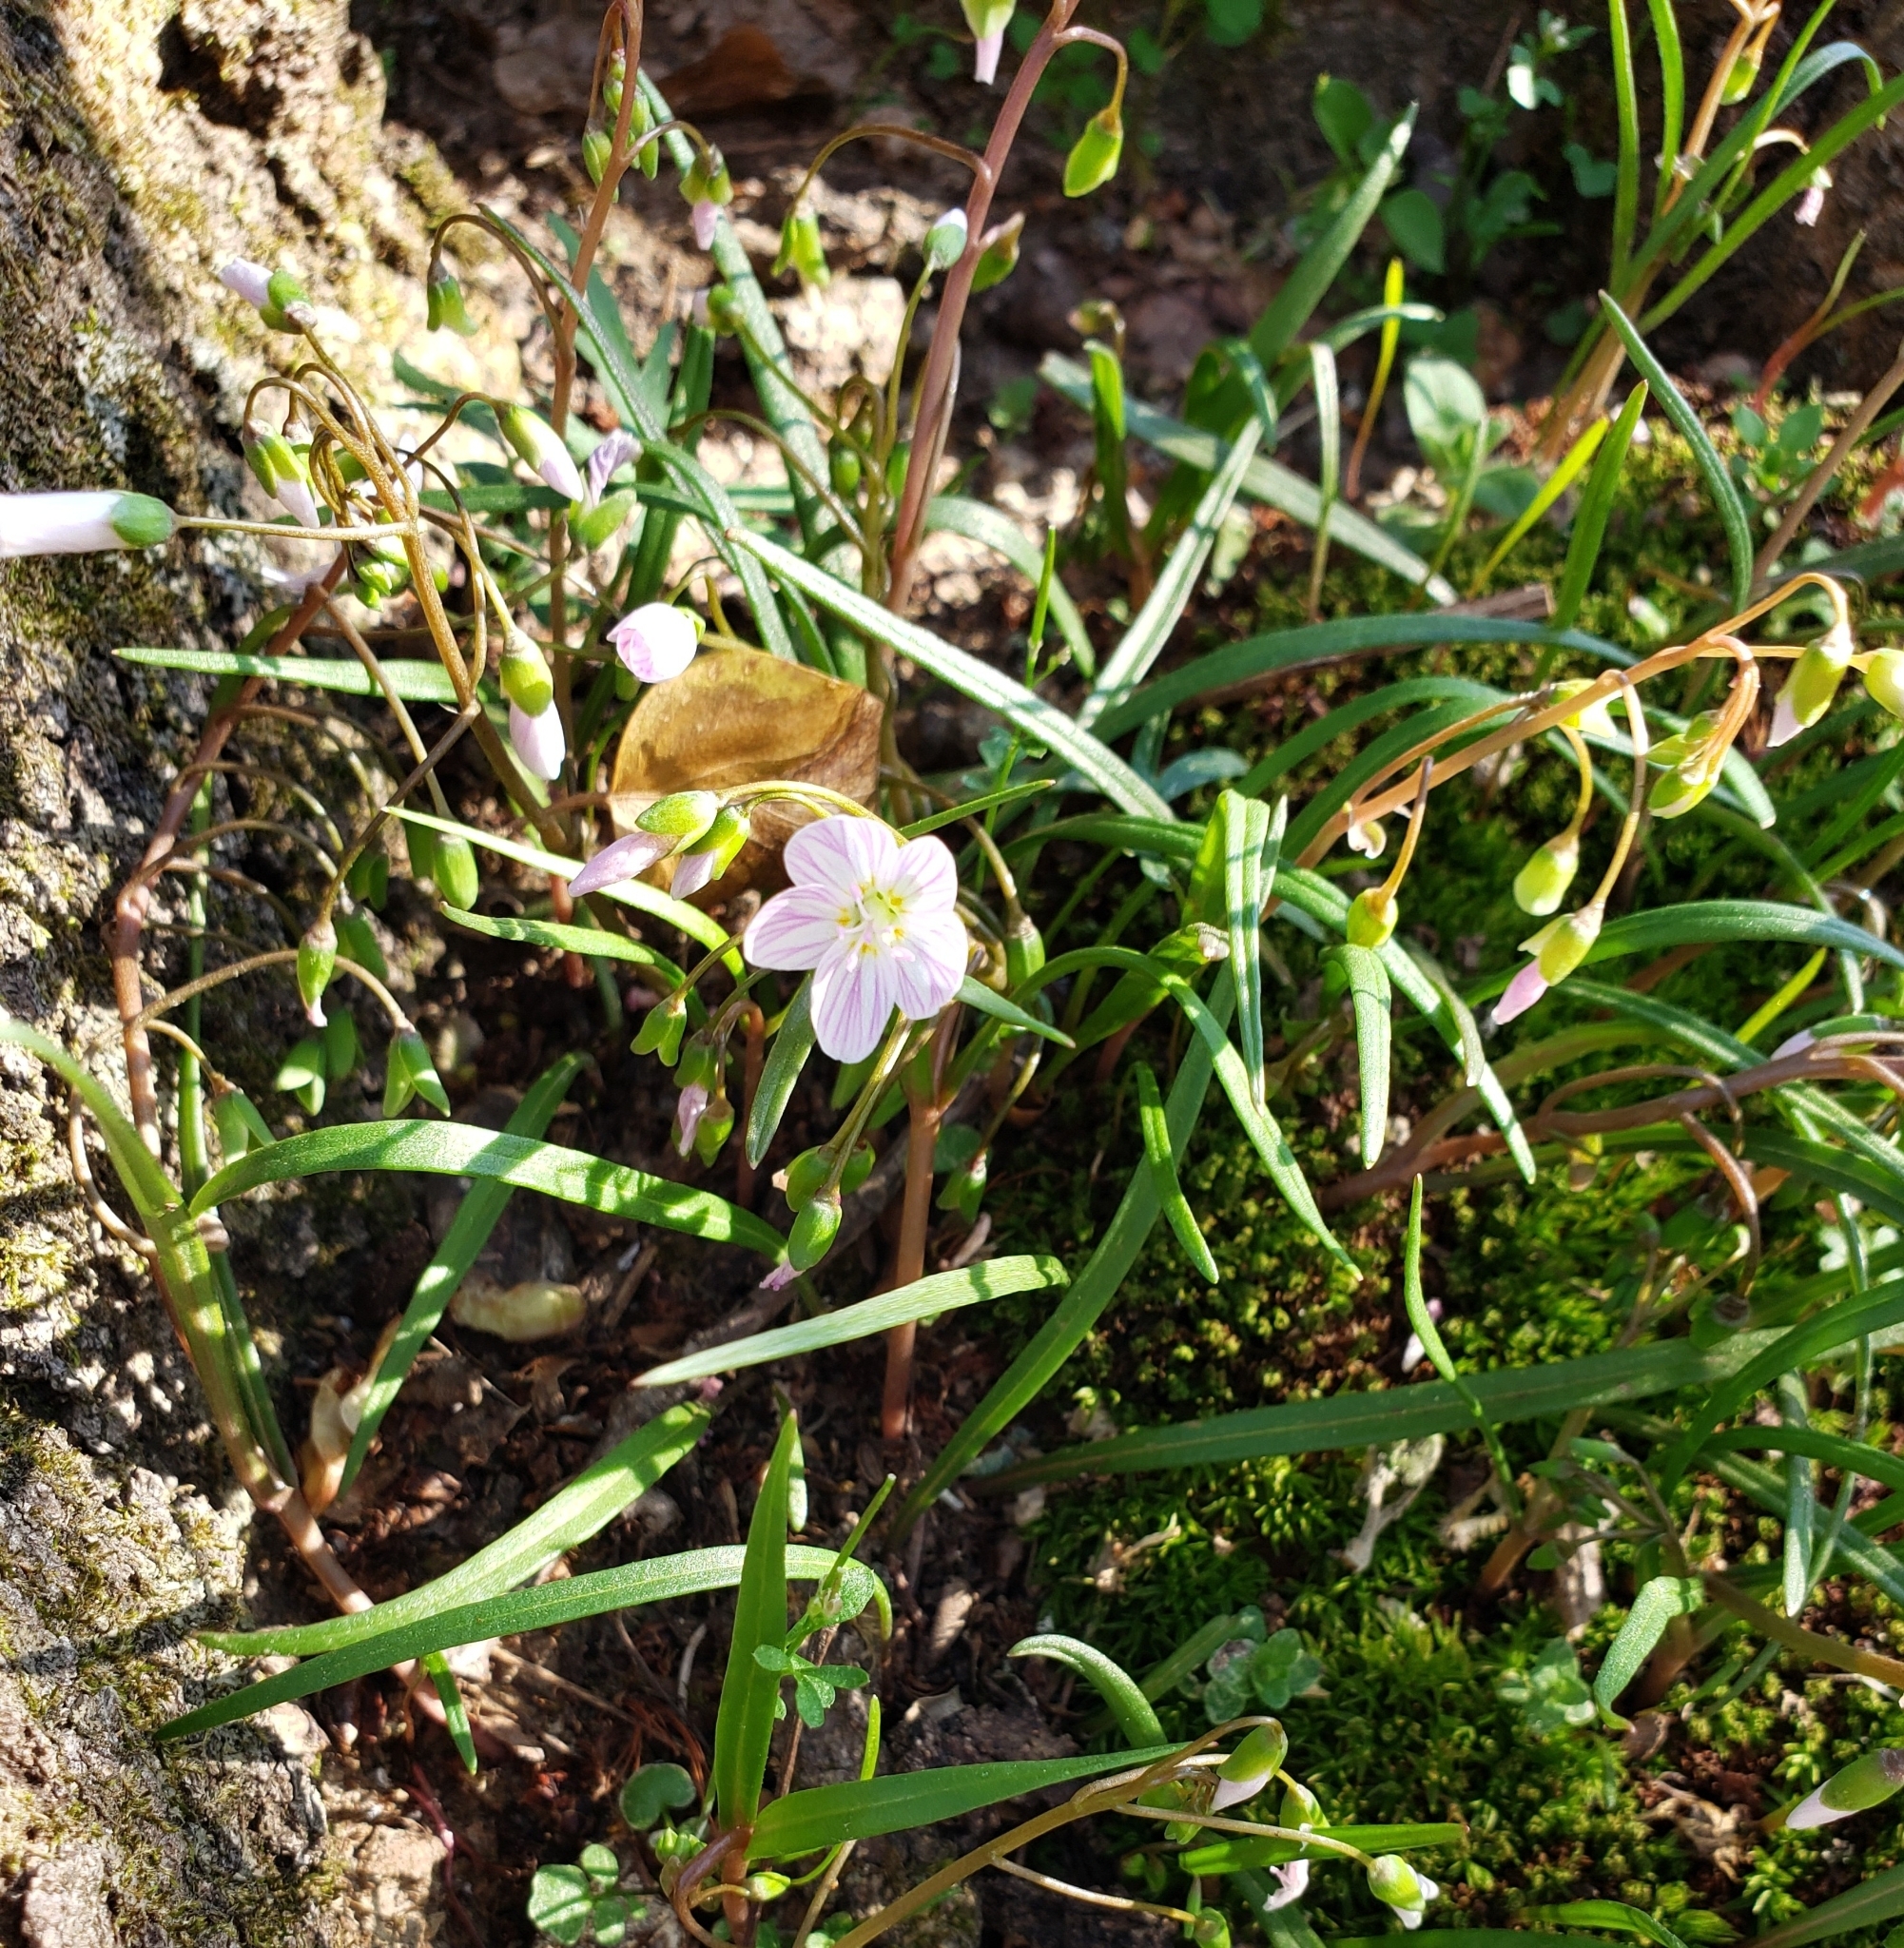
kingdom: Plantae
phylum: Tracheophyta
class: Magnoliopsida
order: Caryophyllales
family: Montiaceae
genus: Claytonia
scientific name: Claytonia virginica
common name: Virginia springbeauty
